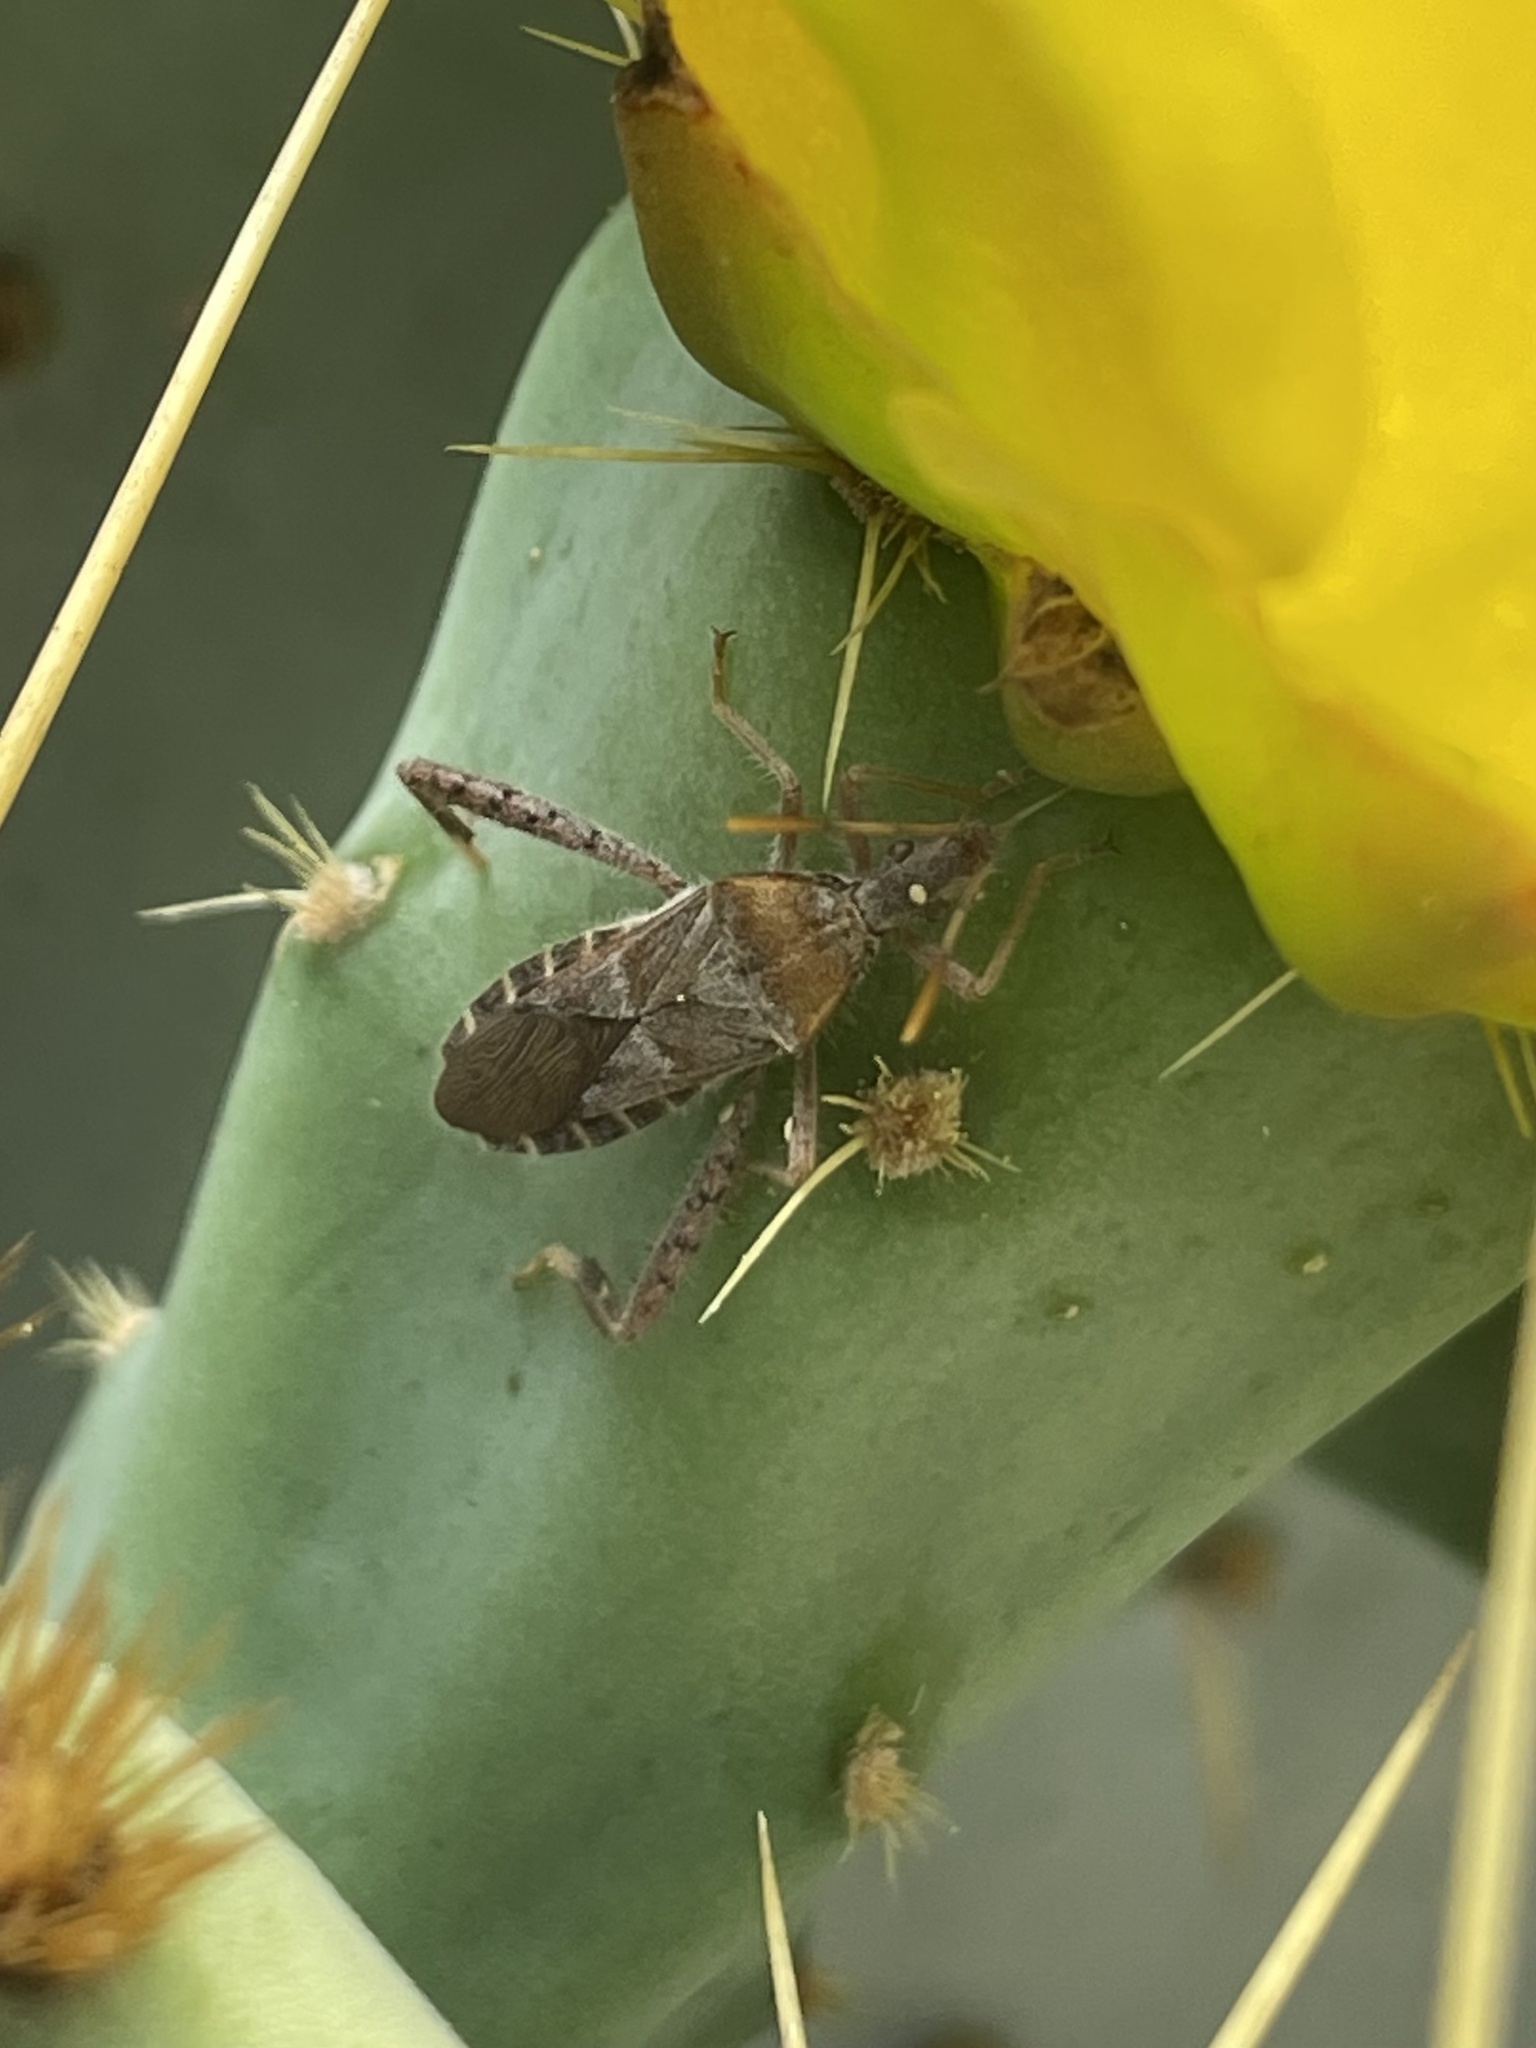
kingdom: Animalia
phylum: Arthropoda
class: Insecta
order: Hemiptera
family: Coreidae
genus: Narnia
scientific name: Narnia femorata
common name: Leaf-footed cactus bug
